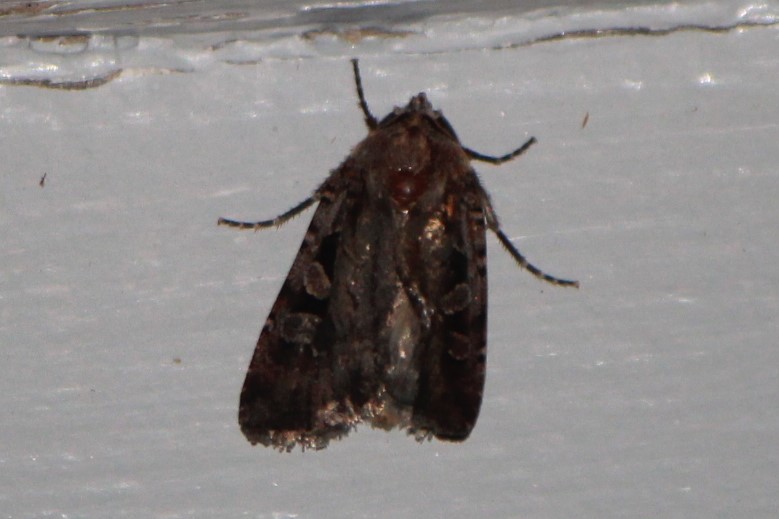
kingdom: Animalia
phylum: Arthropoda
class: Insecta
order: Lepidoptera
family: Noctuidae
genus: Euxoa
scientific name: Euxoa tessellata
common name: Striped cutworm
